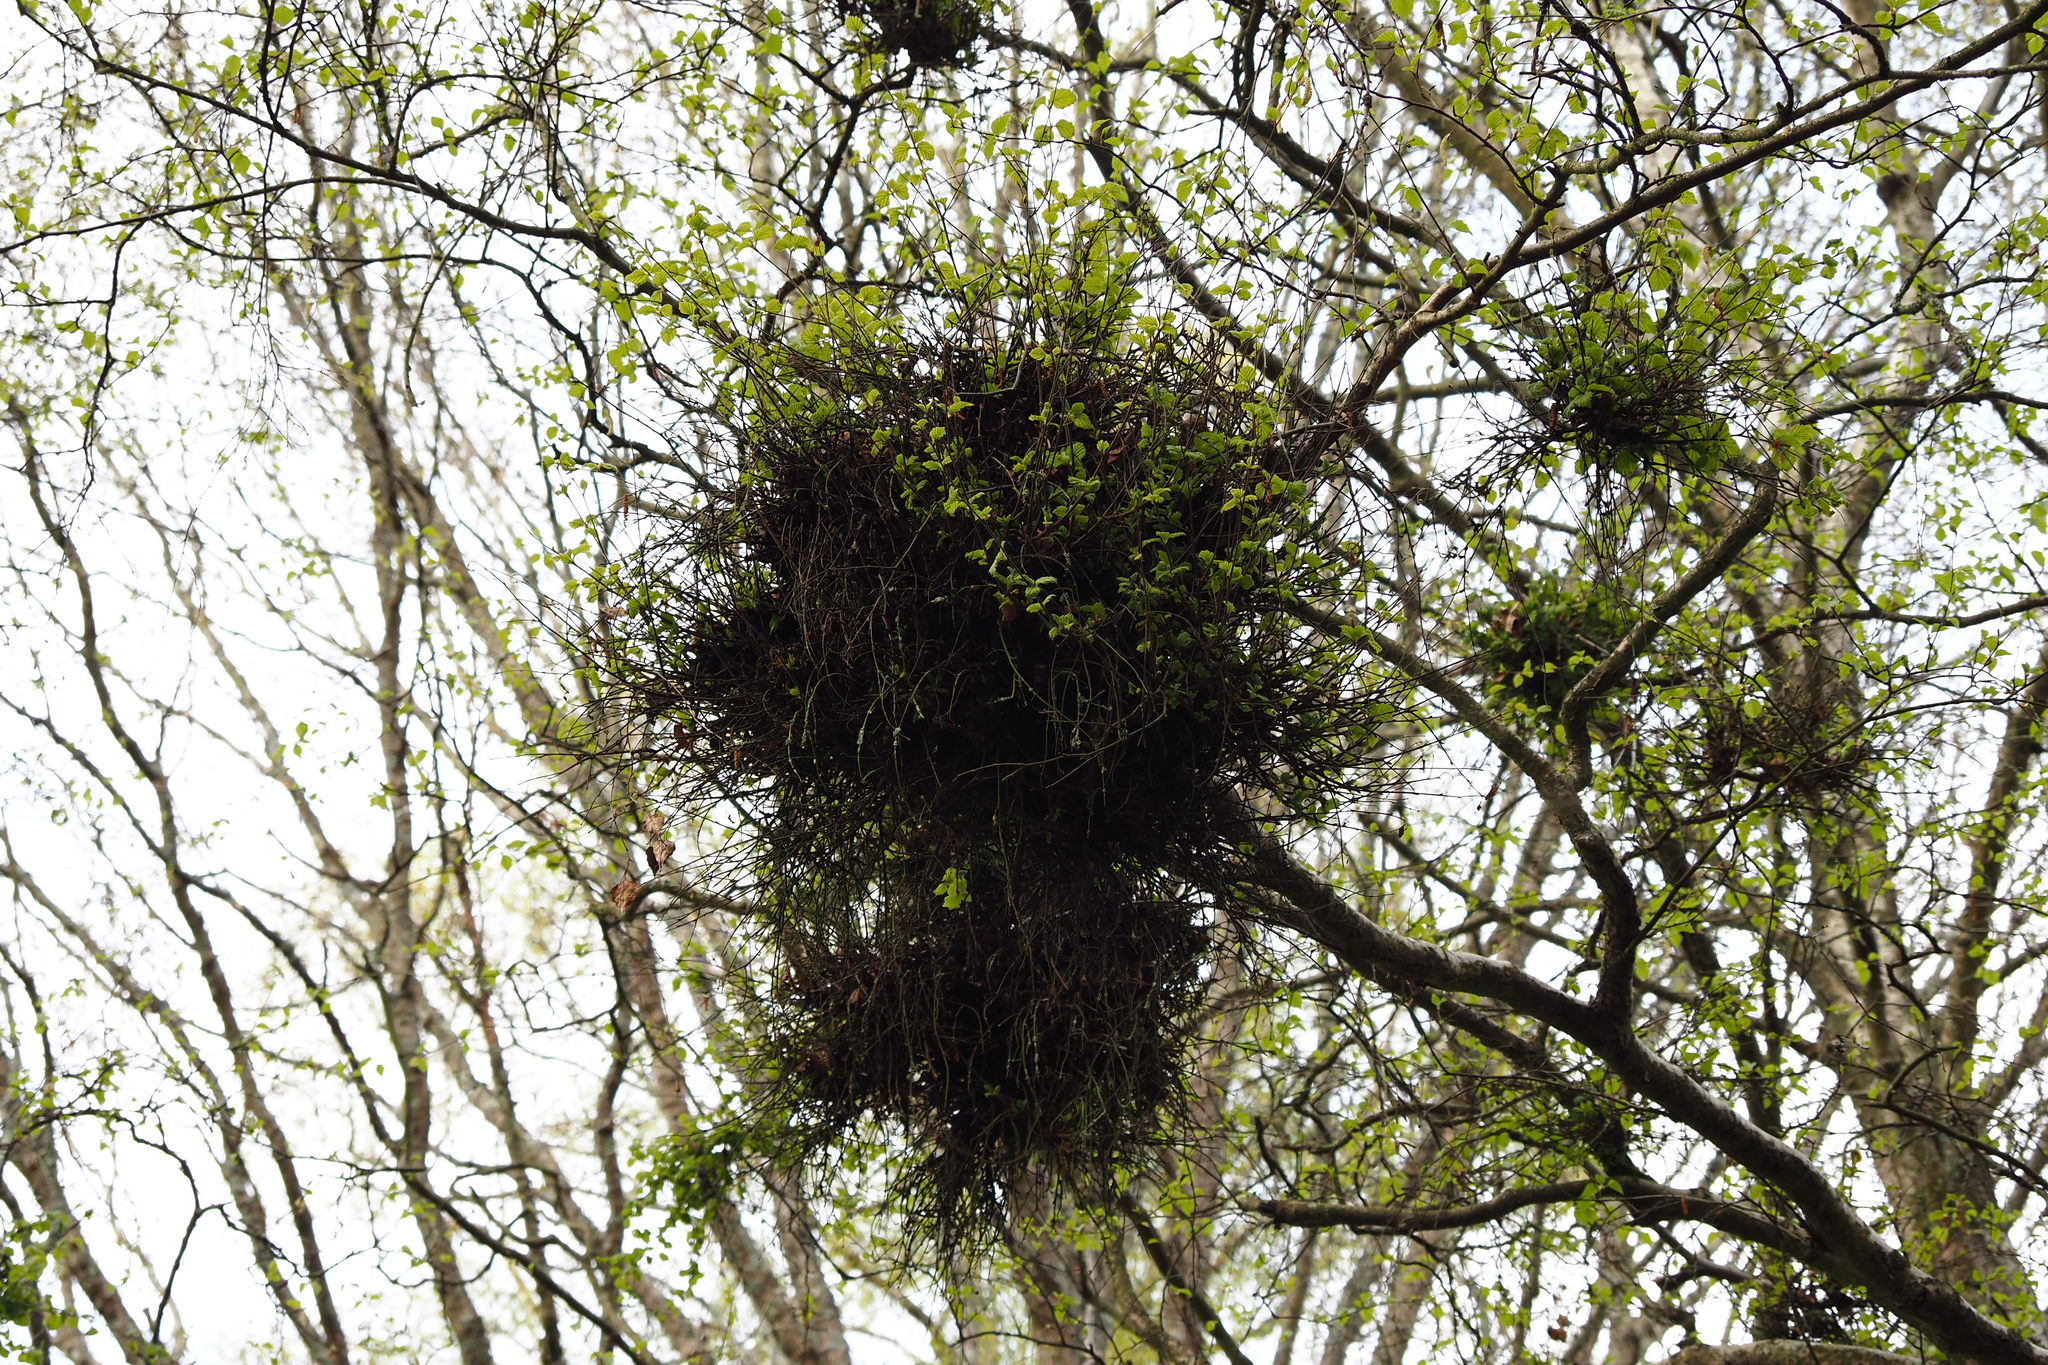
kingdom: Fungi
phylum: Ascomycota
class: Taphrinomycetes
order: Taphrinales
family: Taphrinaceae
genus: Taphrina
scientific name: Taphrina betulina
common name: Birch besom
